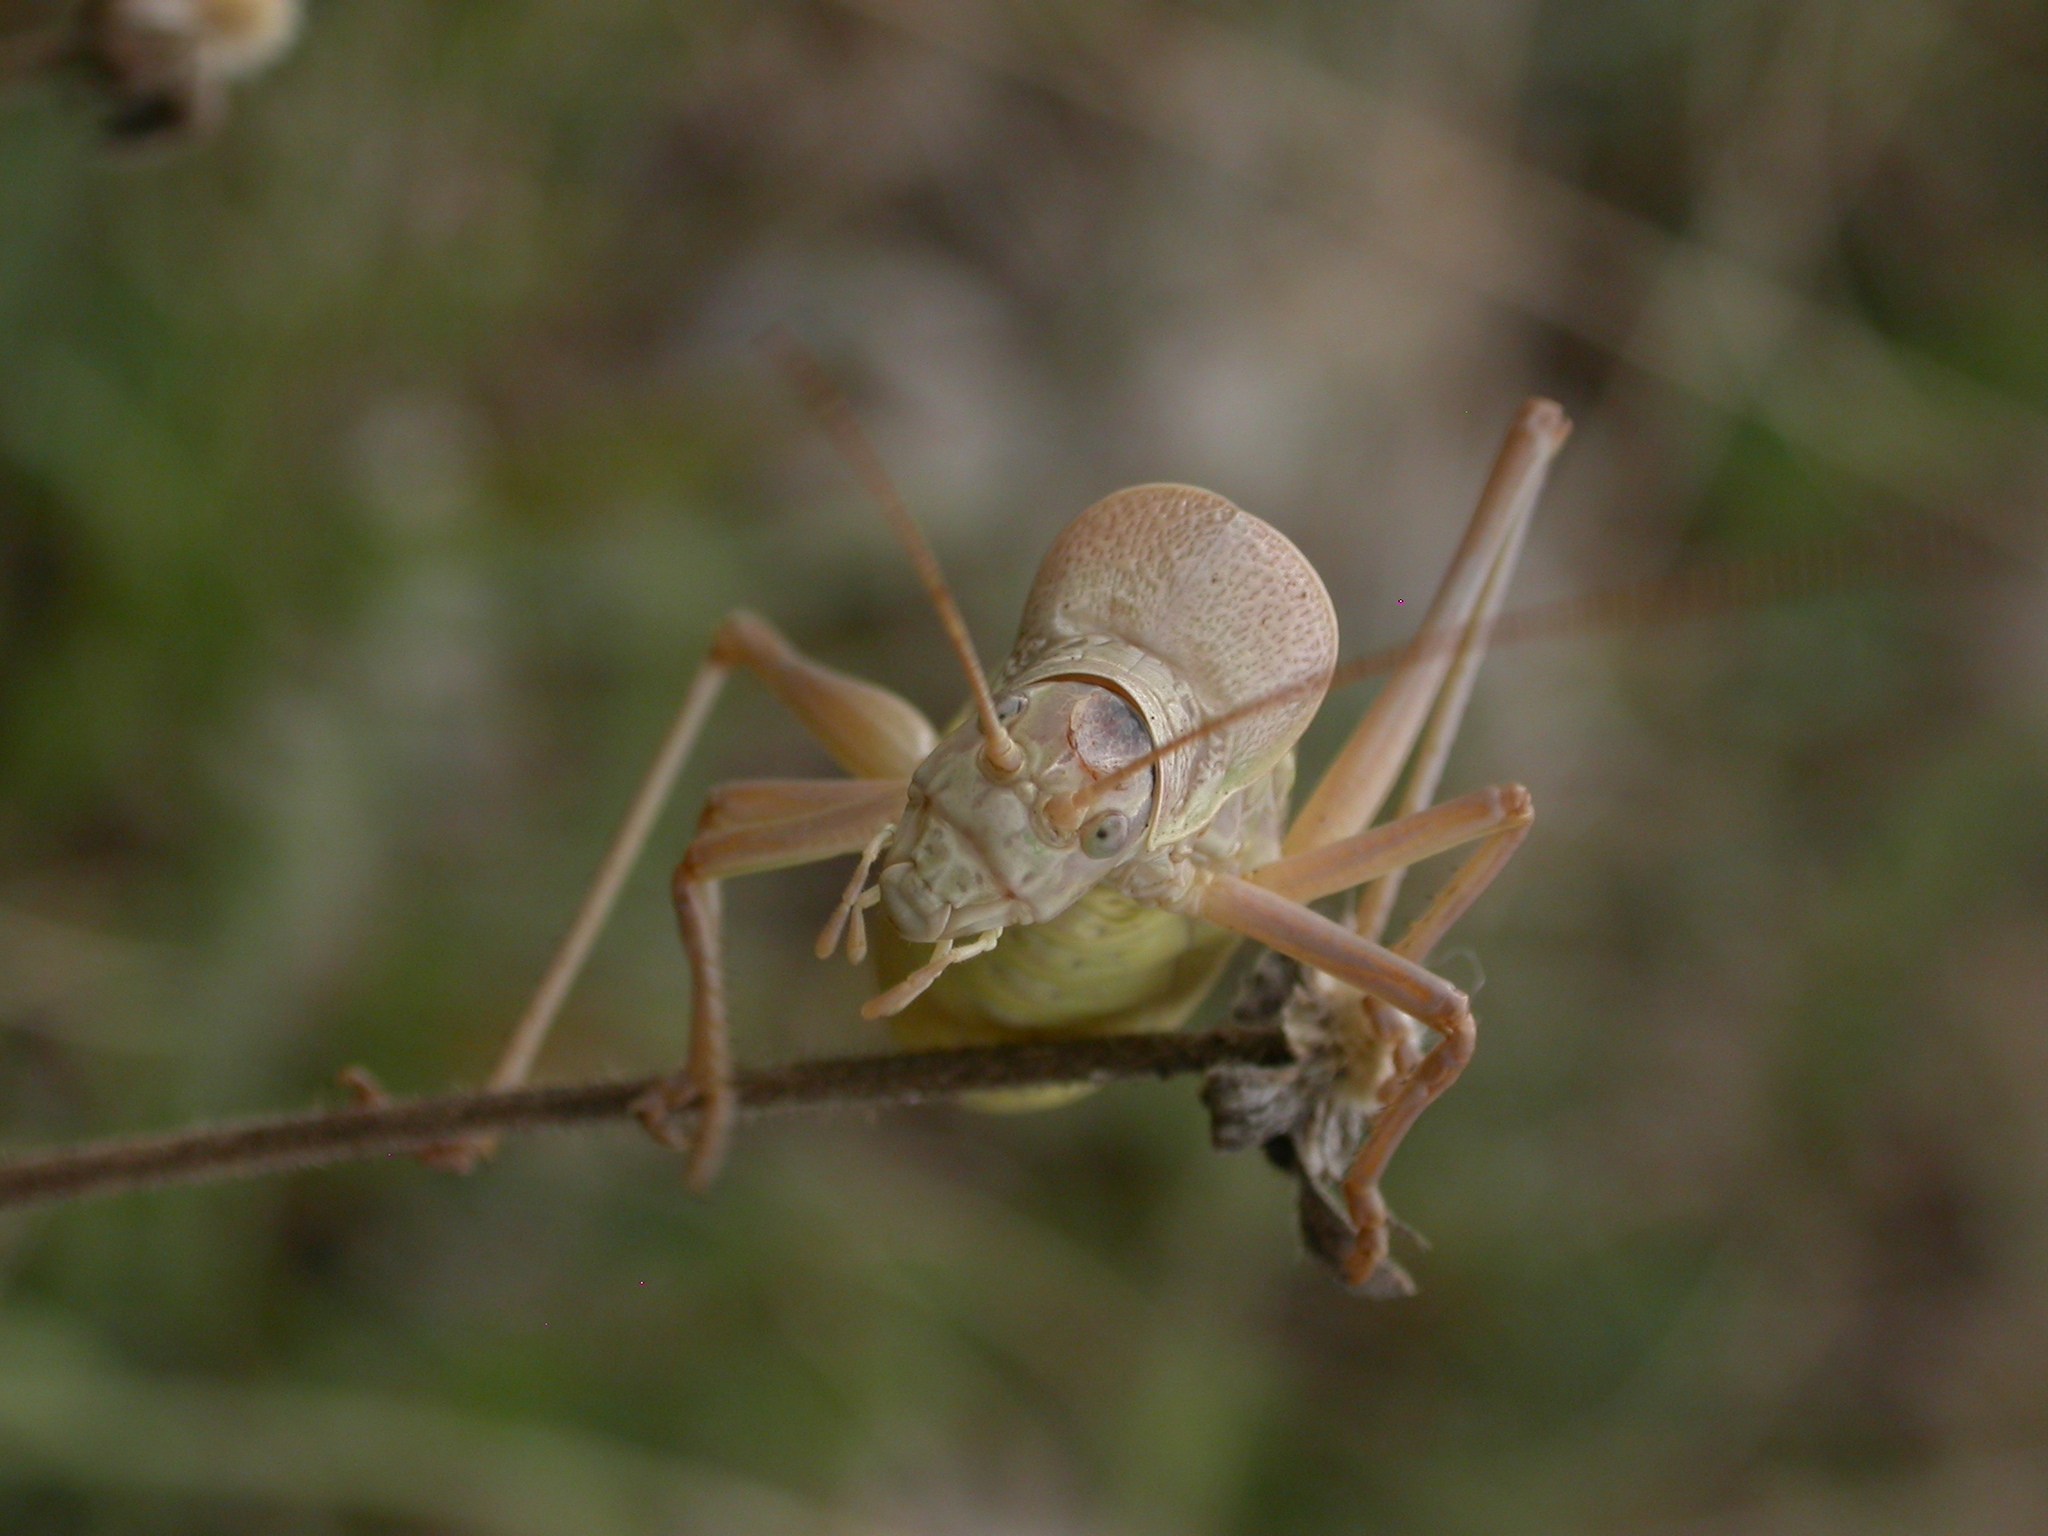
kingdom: Animalia
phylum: Arthropoda
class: Insecta
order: Orthoptera
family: Tettigoniidae
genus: Ephippiger
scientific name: Ephippiger terrestris
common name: Alpine saddle-backed bush-cricket
